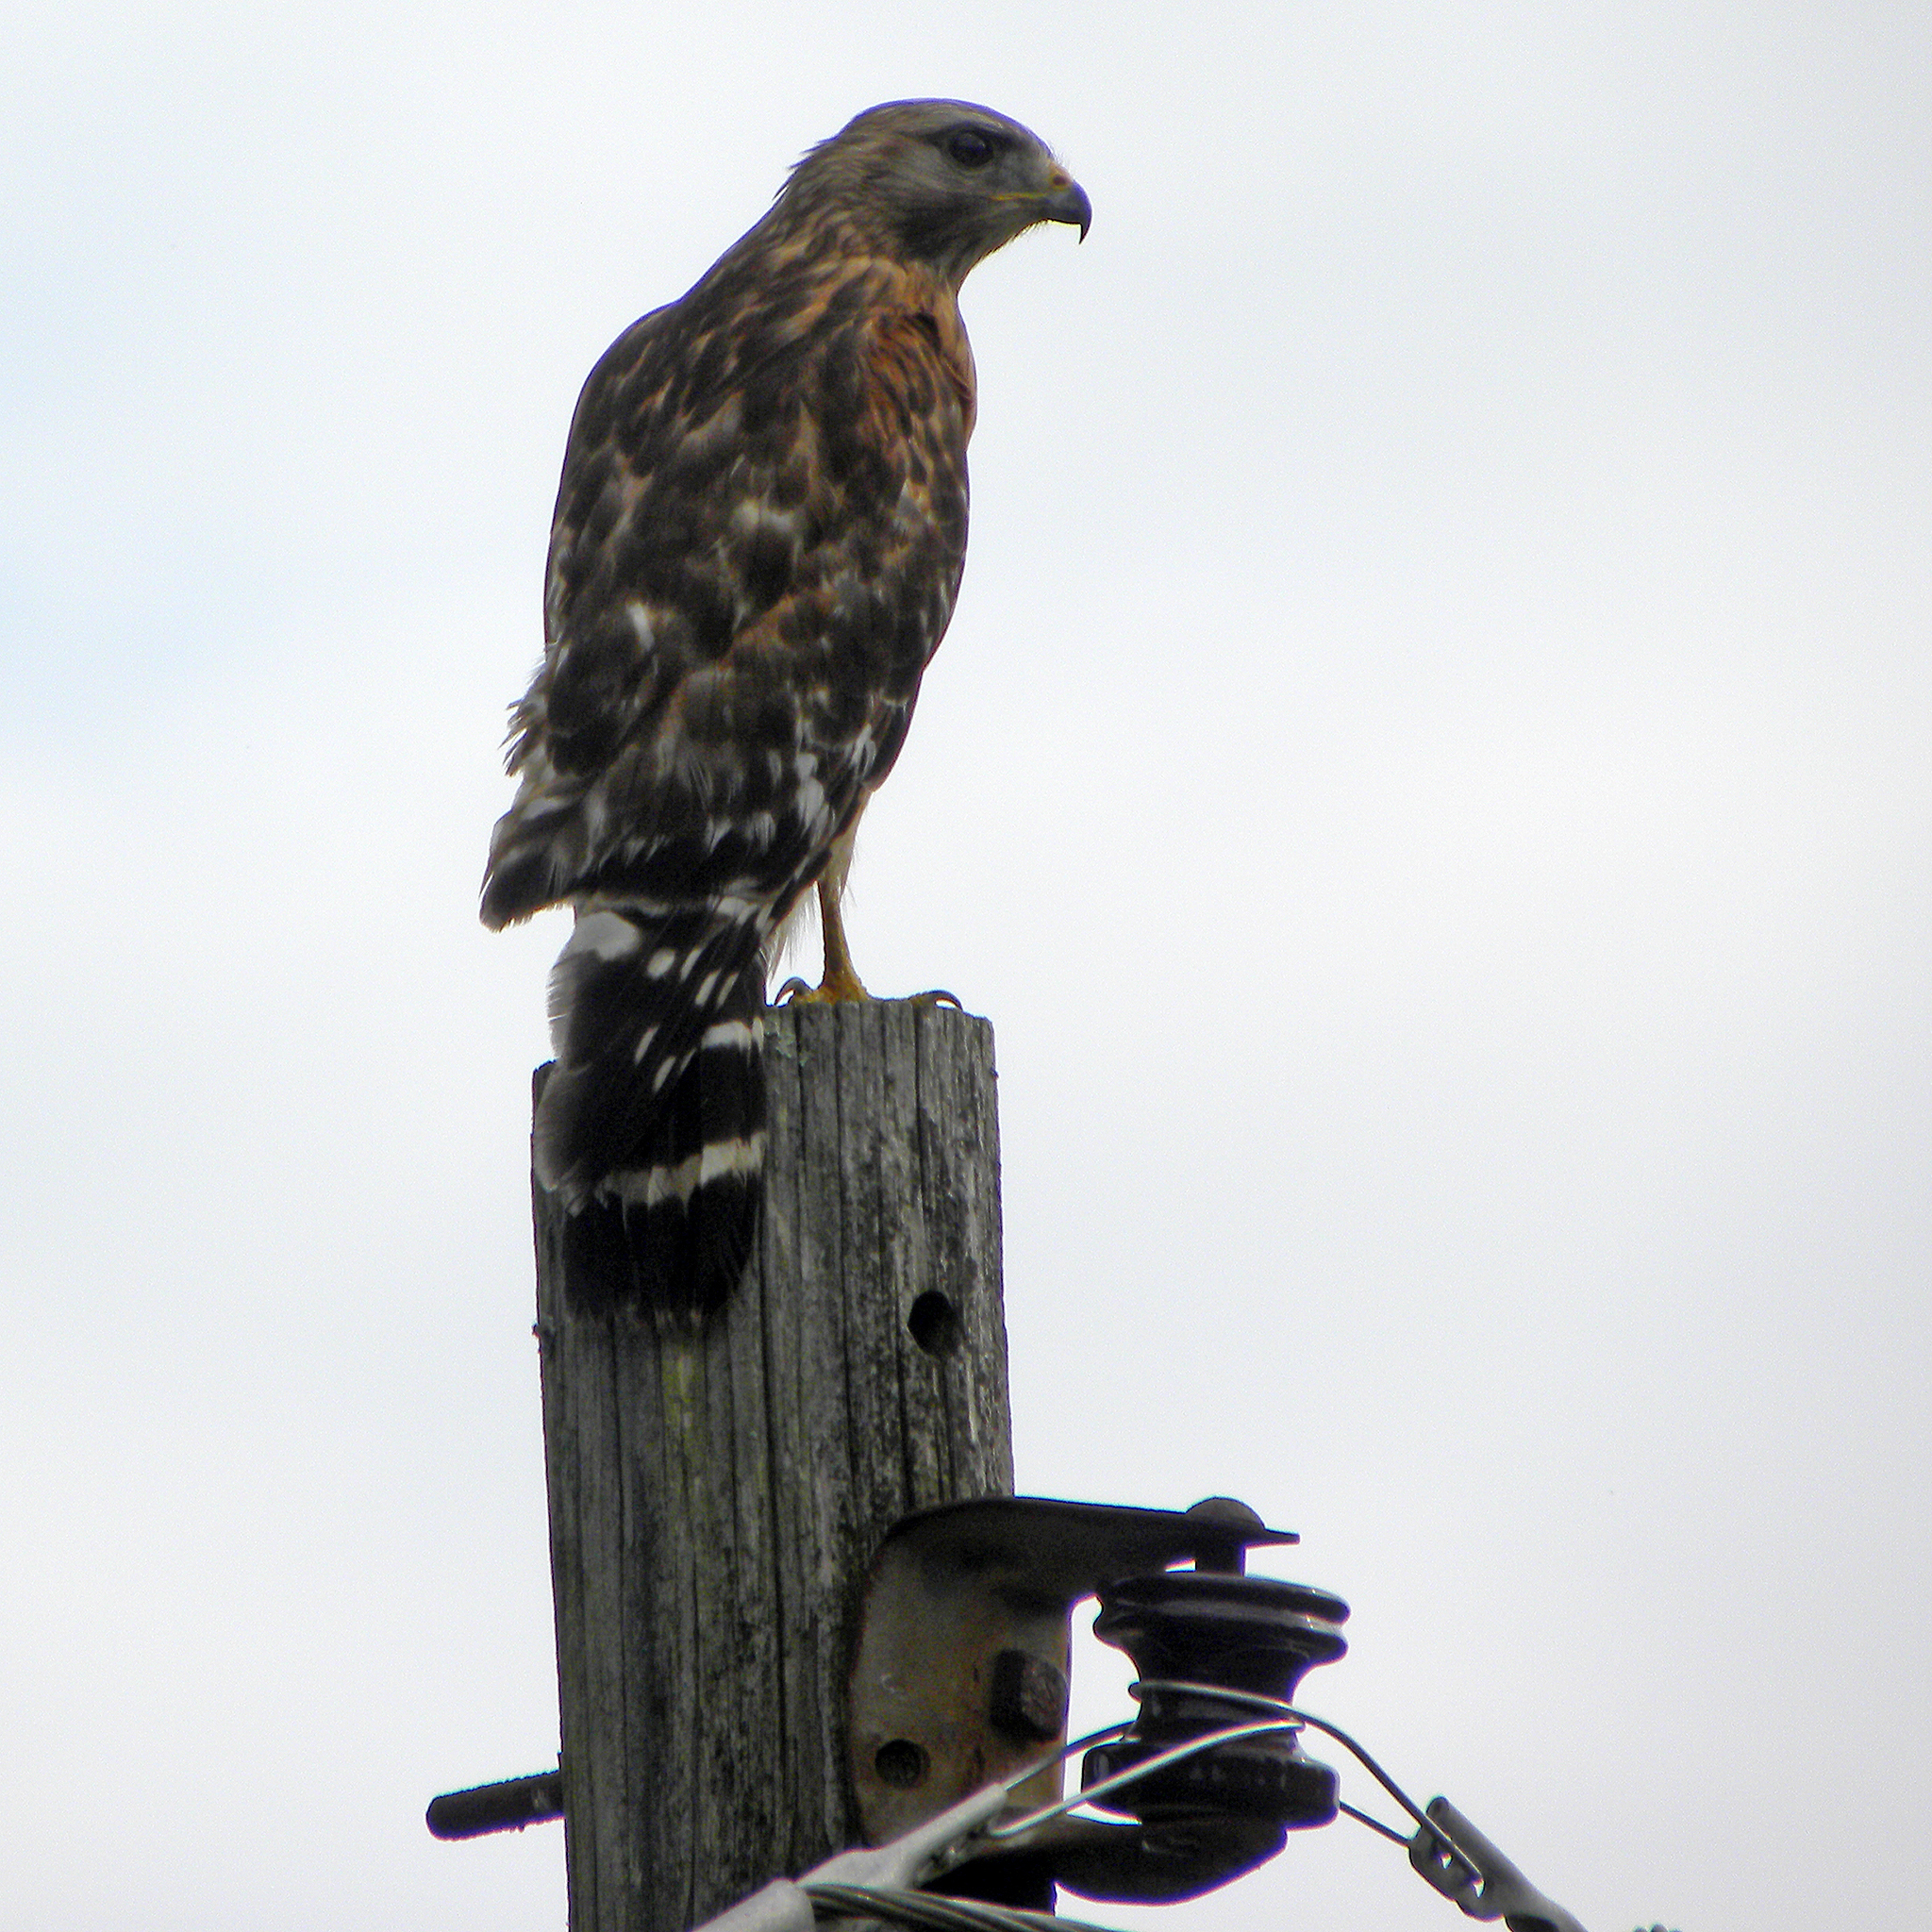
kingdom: Animalia
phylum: Chordata
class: Aves
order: Accipitriformes
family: Accipitridae
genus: Buteo
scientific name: Buteo lineatus
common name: Red-shouldered hawk
